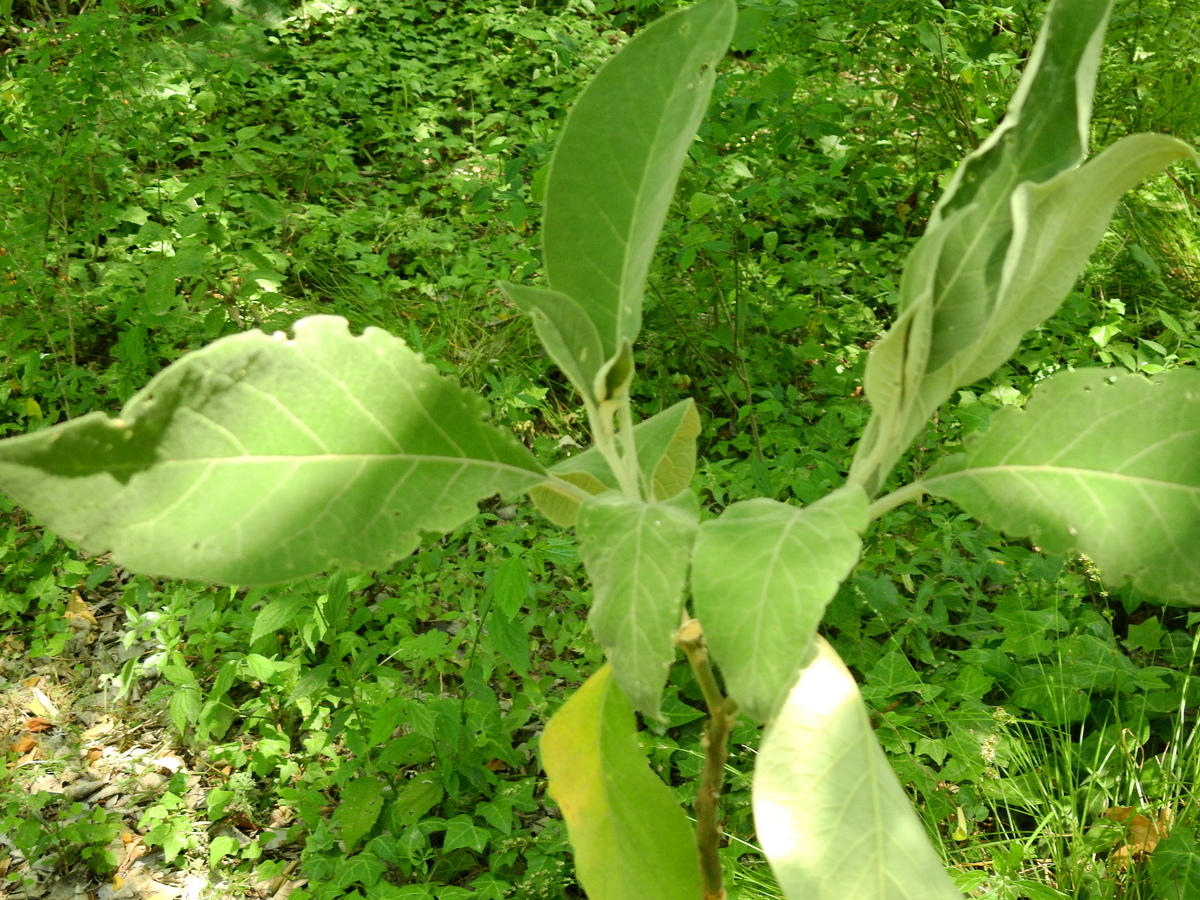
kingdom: Plantae
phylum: Tracheophyta
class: Magnoliopsida
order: Solanales
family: Solanaceae
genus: Solanum
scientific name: Solanum granulosoleprosum
